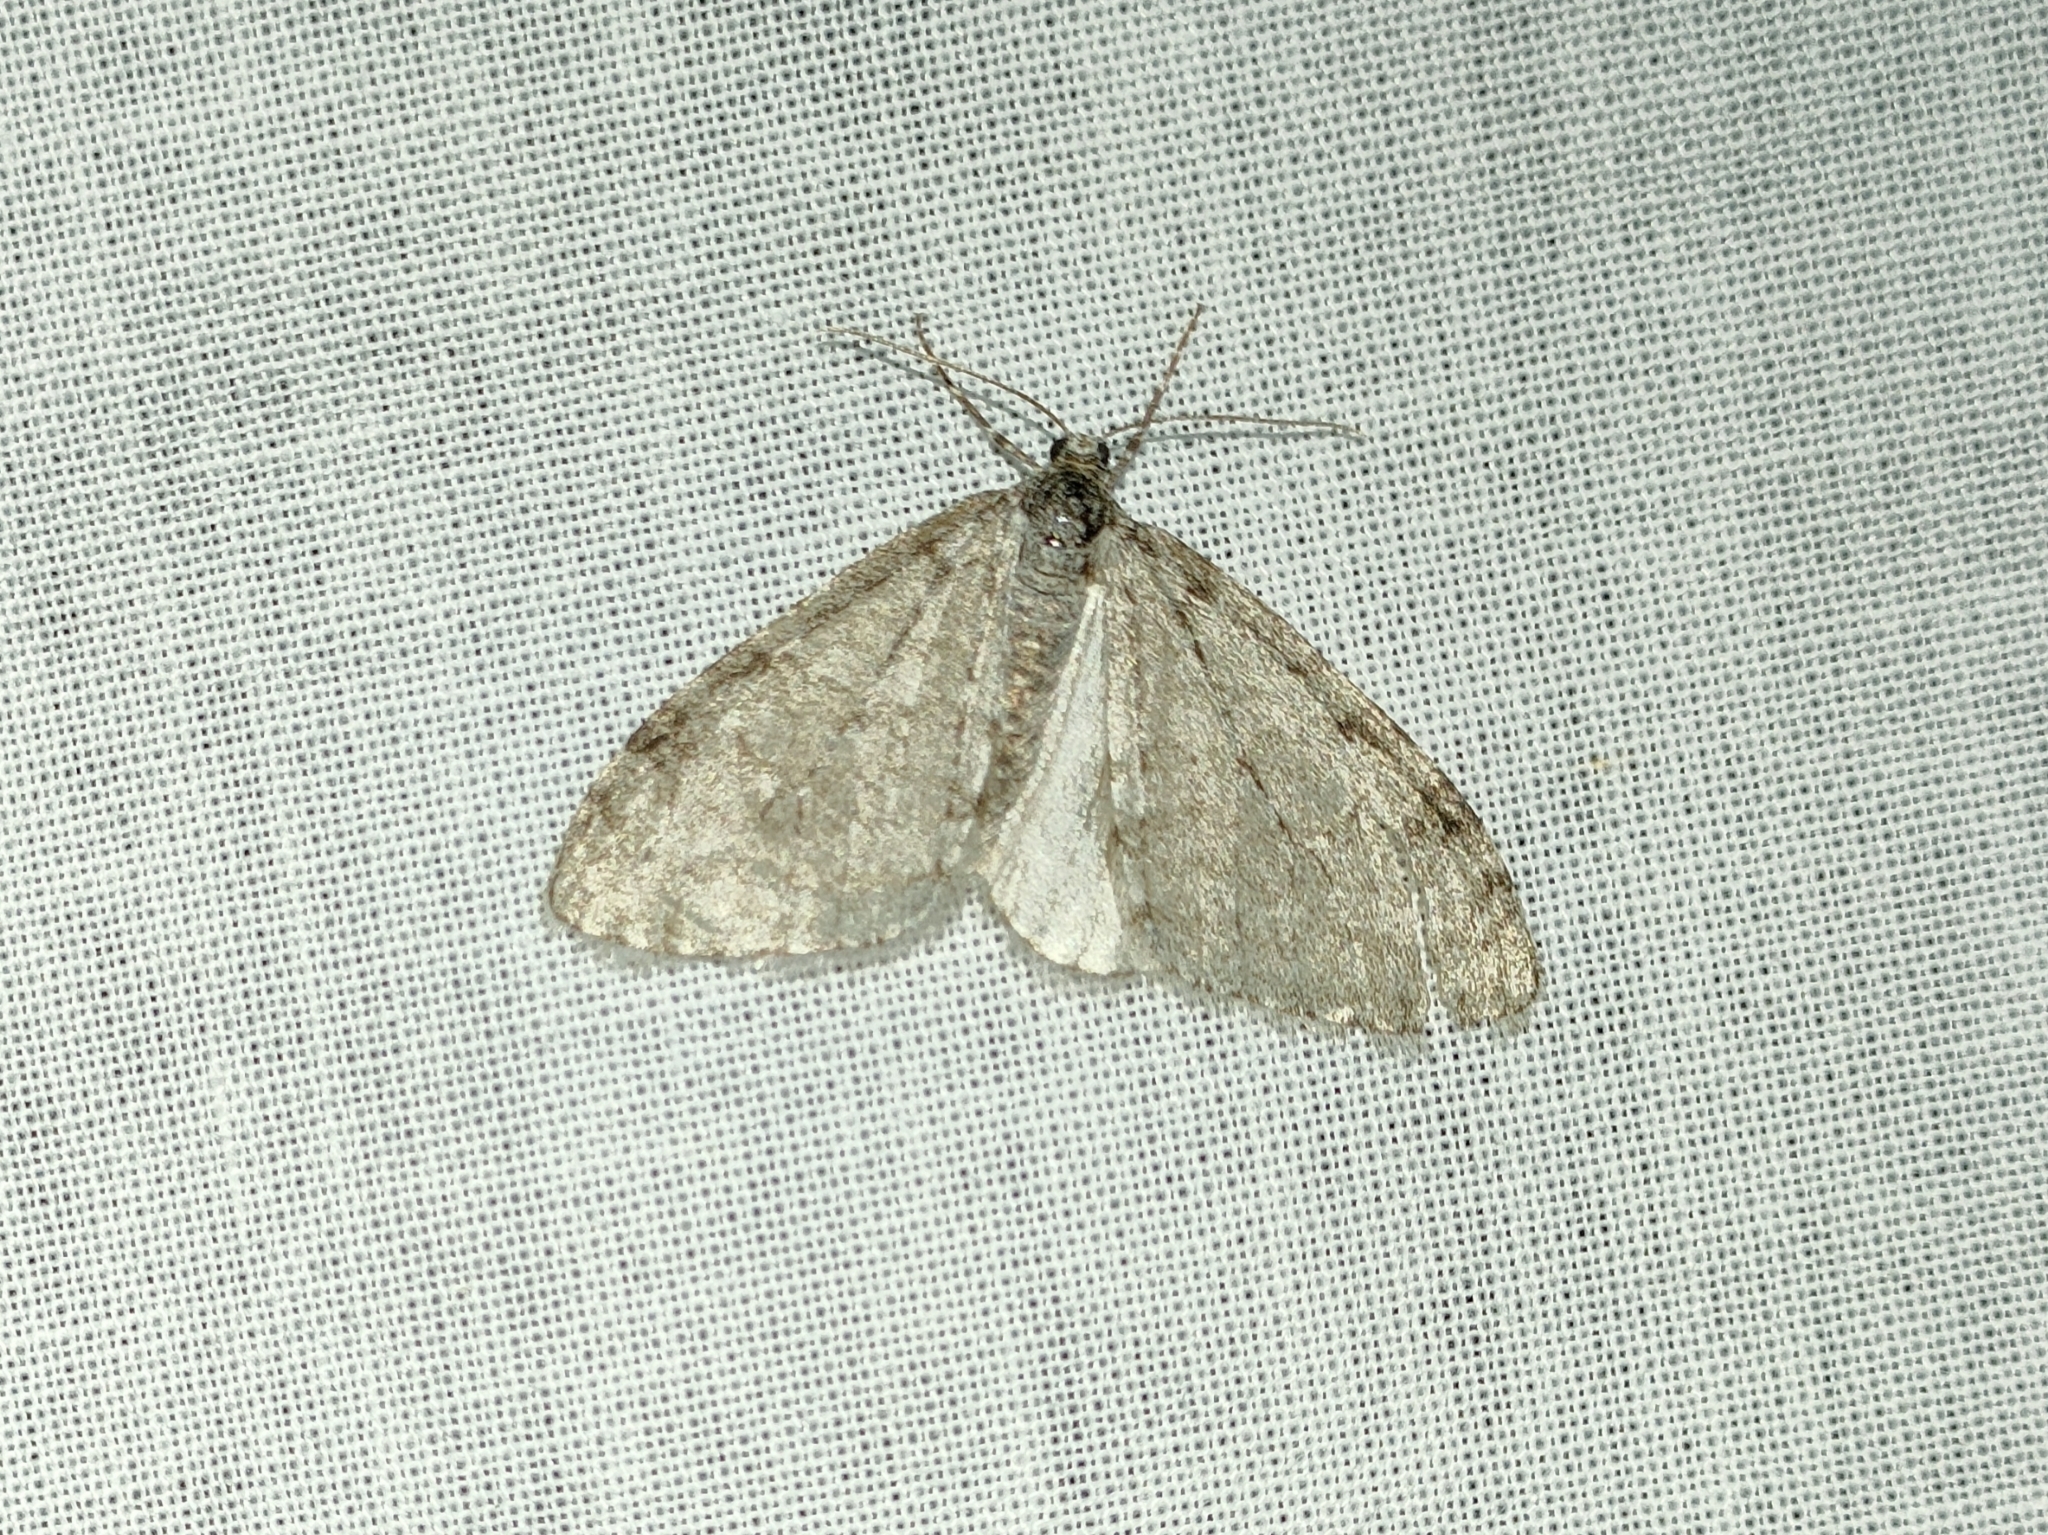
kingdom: Animalia
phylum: Arthropoda
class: Insecta
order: Lepidoptera
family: Geometridae
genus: Trichopteryx
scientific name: Trichopteryx carpinata
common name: Early tooth-striped
